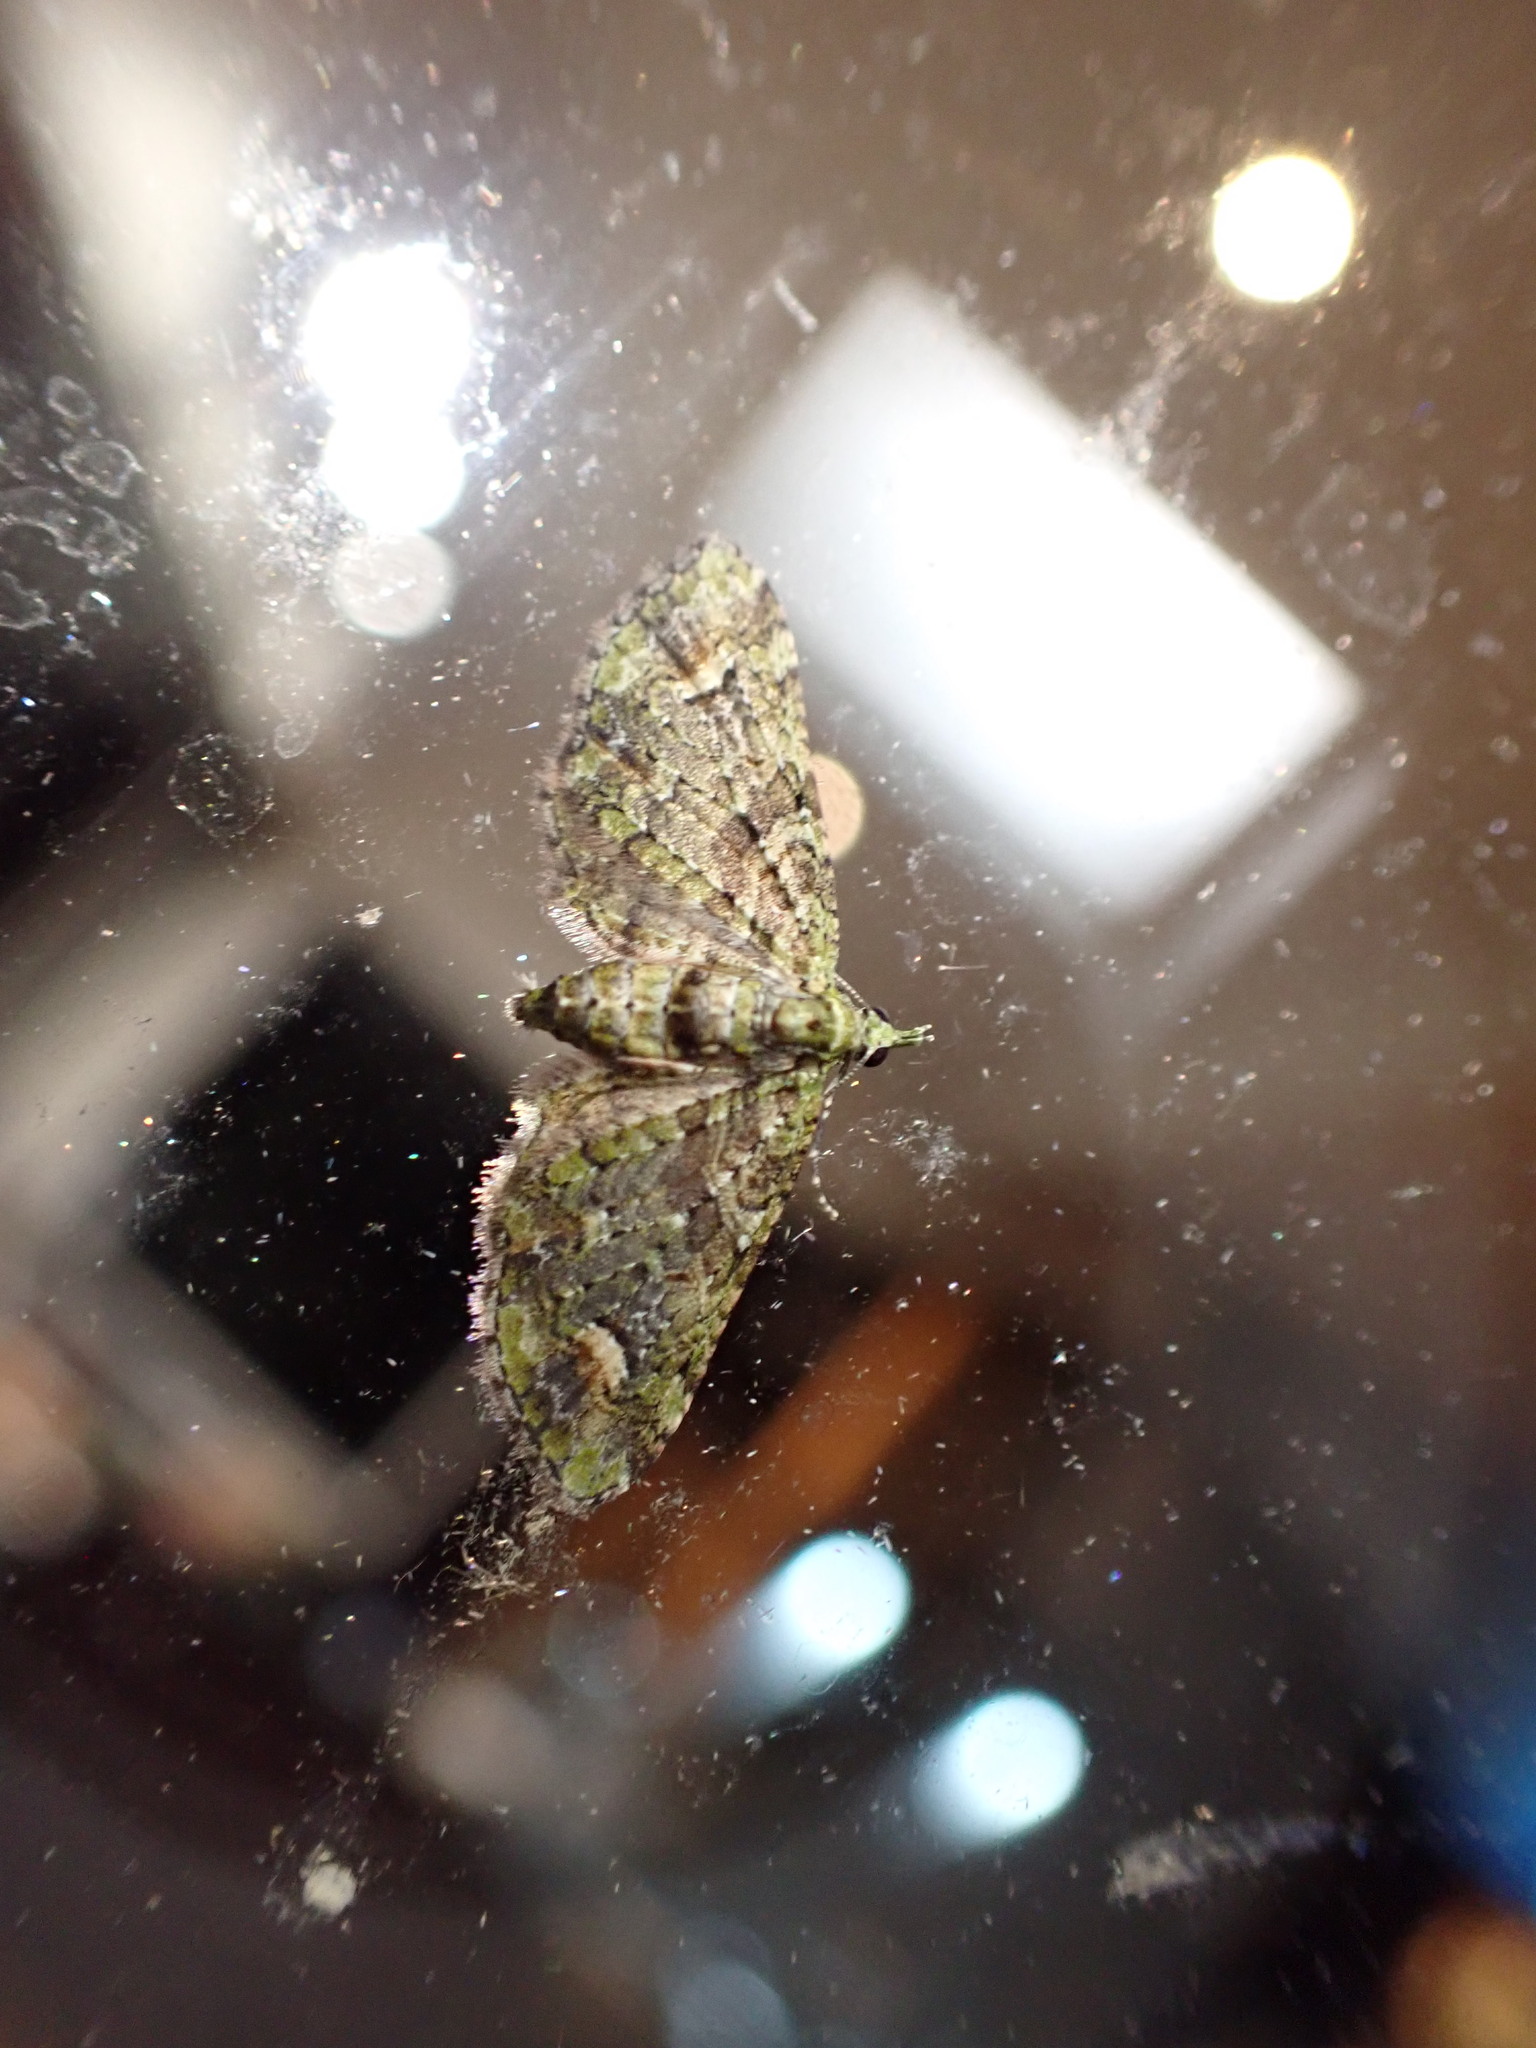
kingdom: Animalia
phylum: Arthropoda
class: Insecta
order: Lepidoptera
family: Geometridae
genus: Idaea
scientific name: Idaea mutanda
